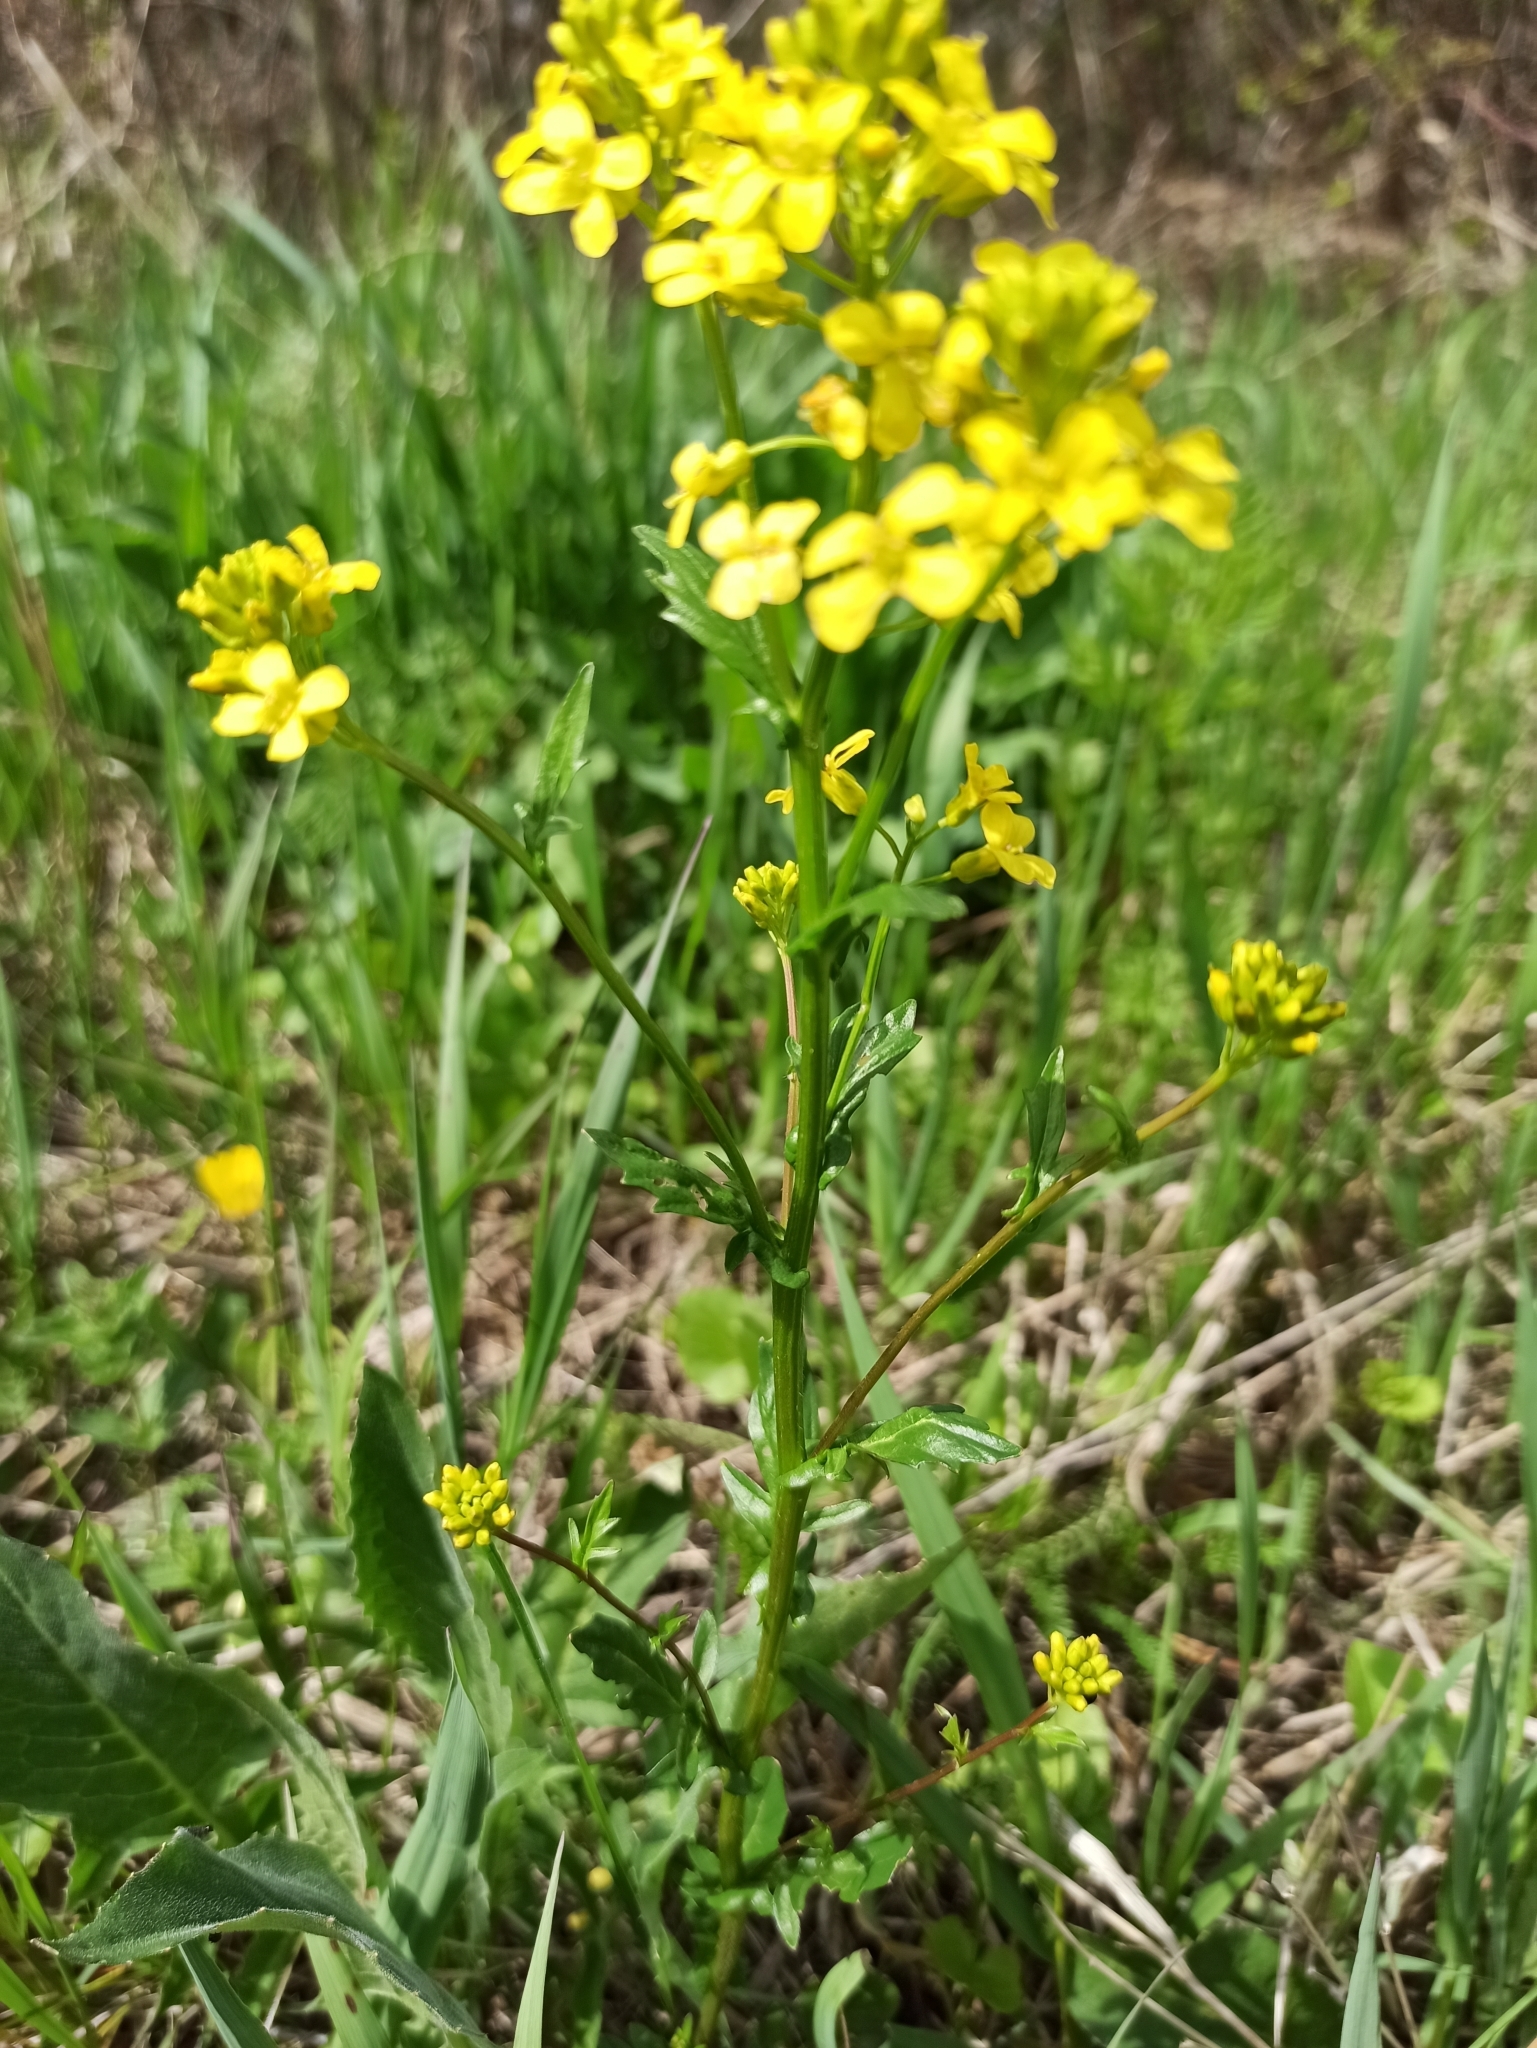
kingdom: Plantae
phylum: Tracheophyta
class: Magnoliopsida
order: Brassicales
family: Brassicaceae
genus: Barbarea
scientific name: Barbarea vulgaris
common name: Cressy-greens
